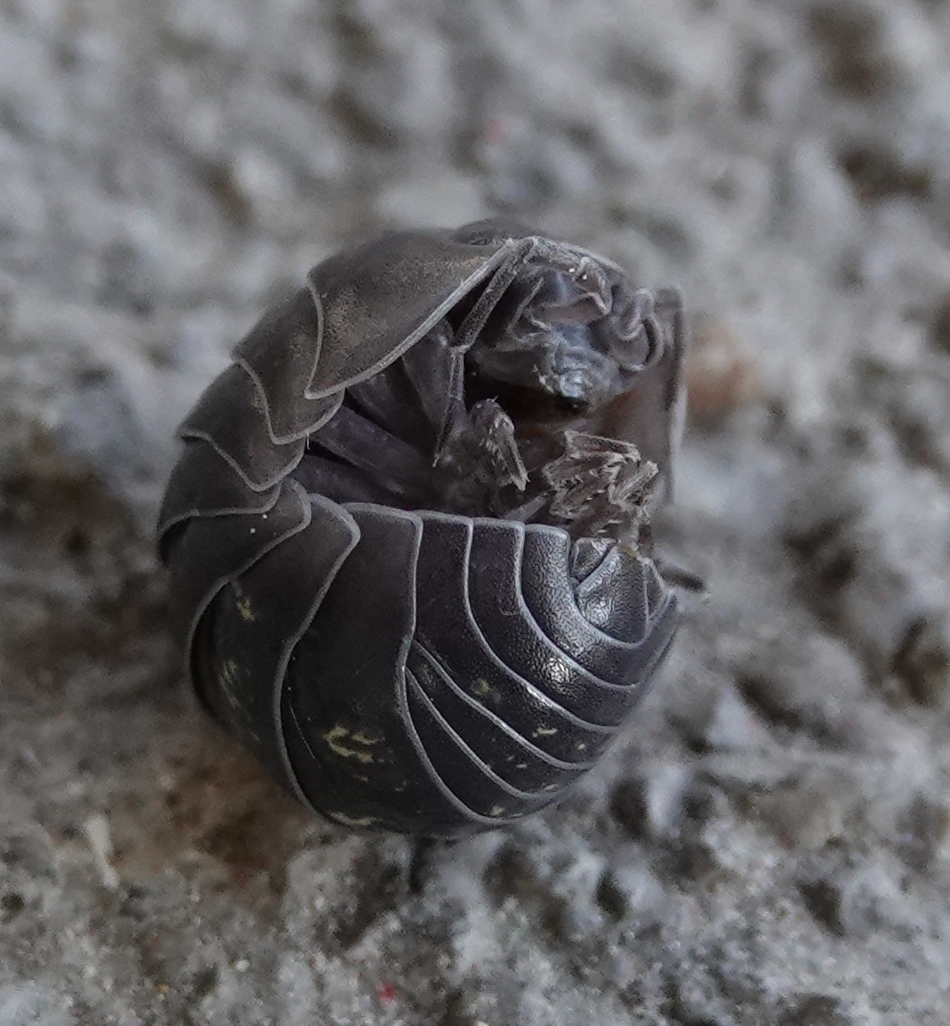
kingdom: Animalia
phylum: Arthropoda
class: Malacostraca
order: Isopoda
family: Armadillidiidae
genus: Armadillidium
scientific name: Armadillidium vulgare
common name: Common pill woodlouse
